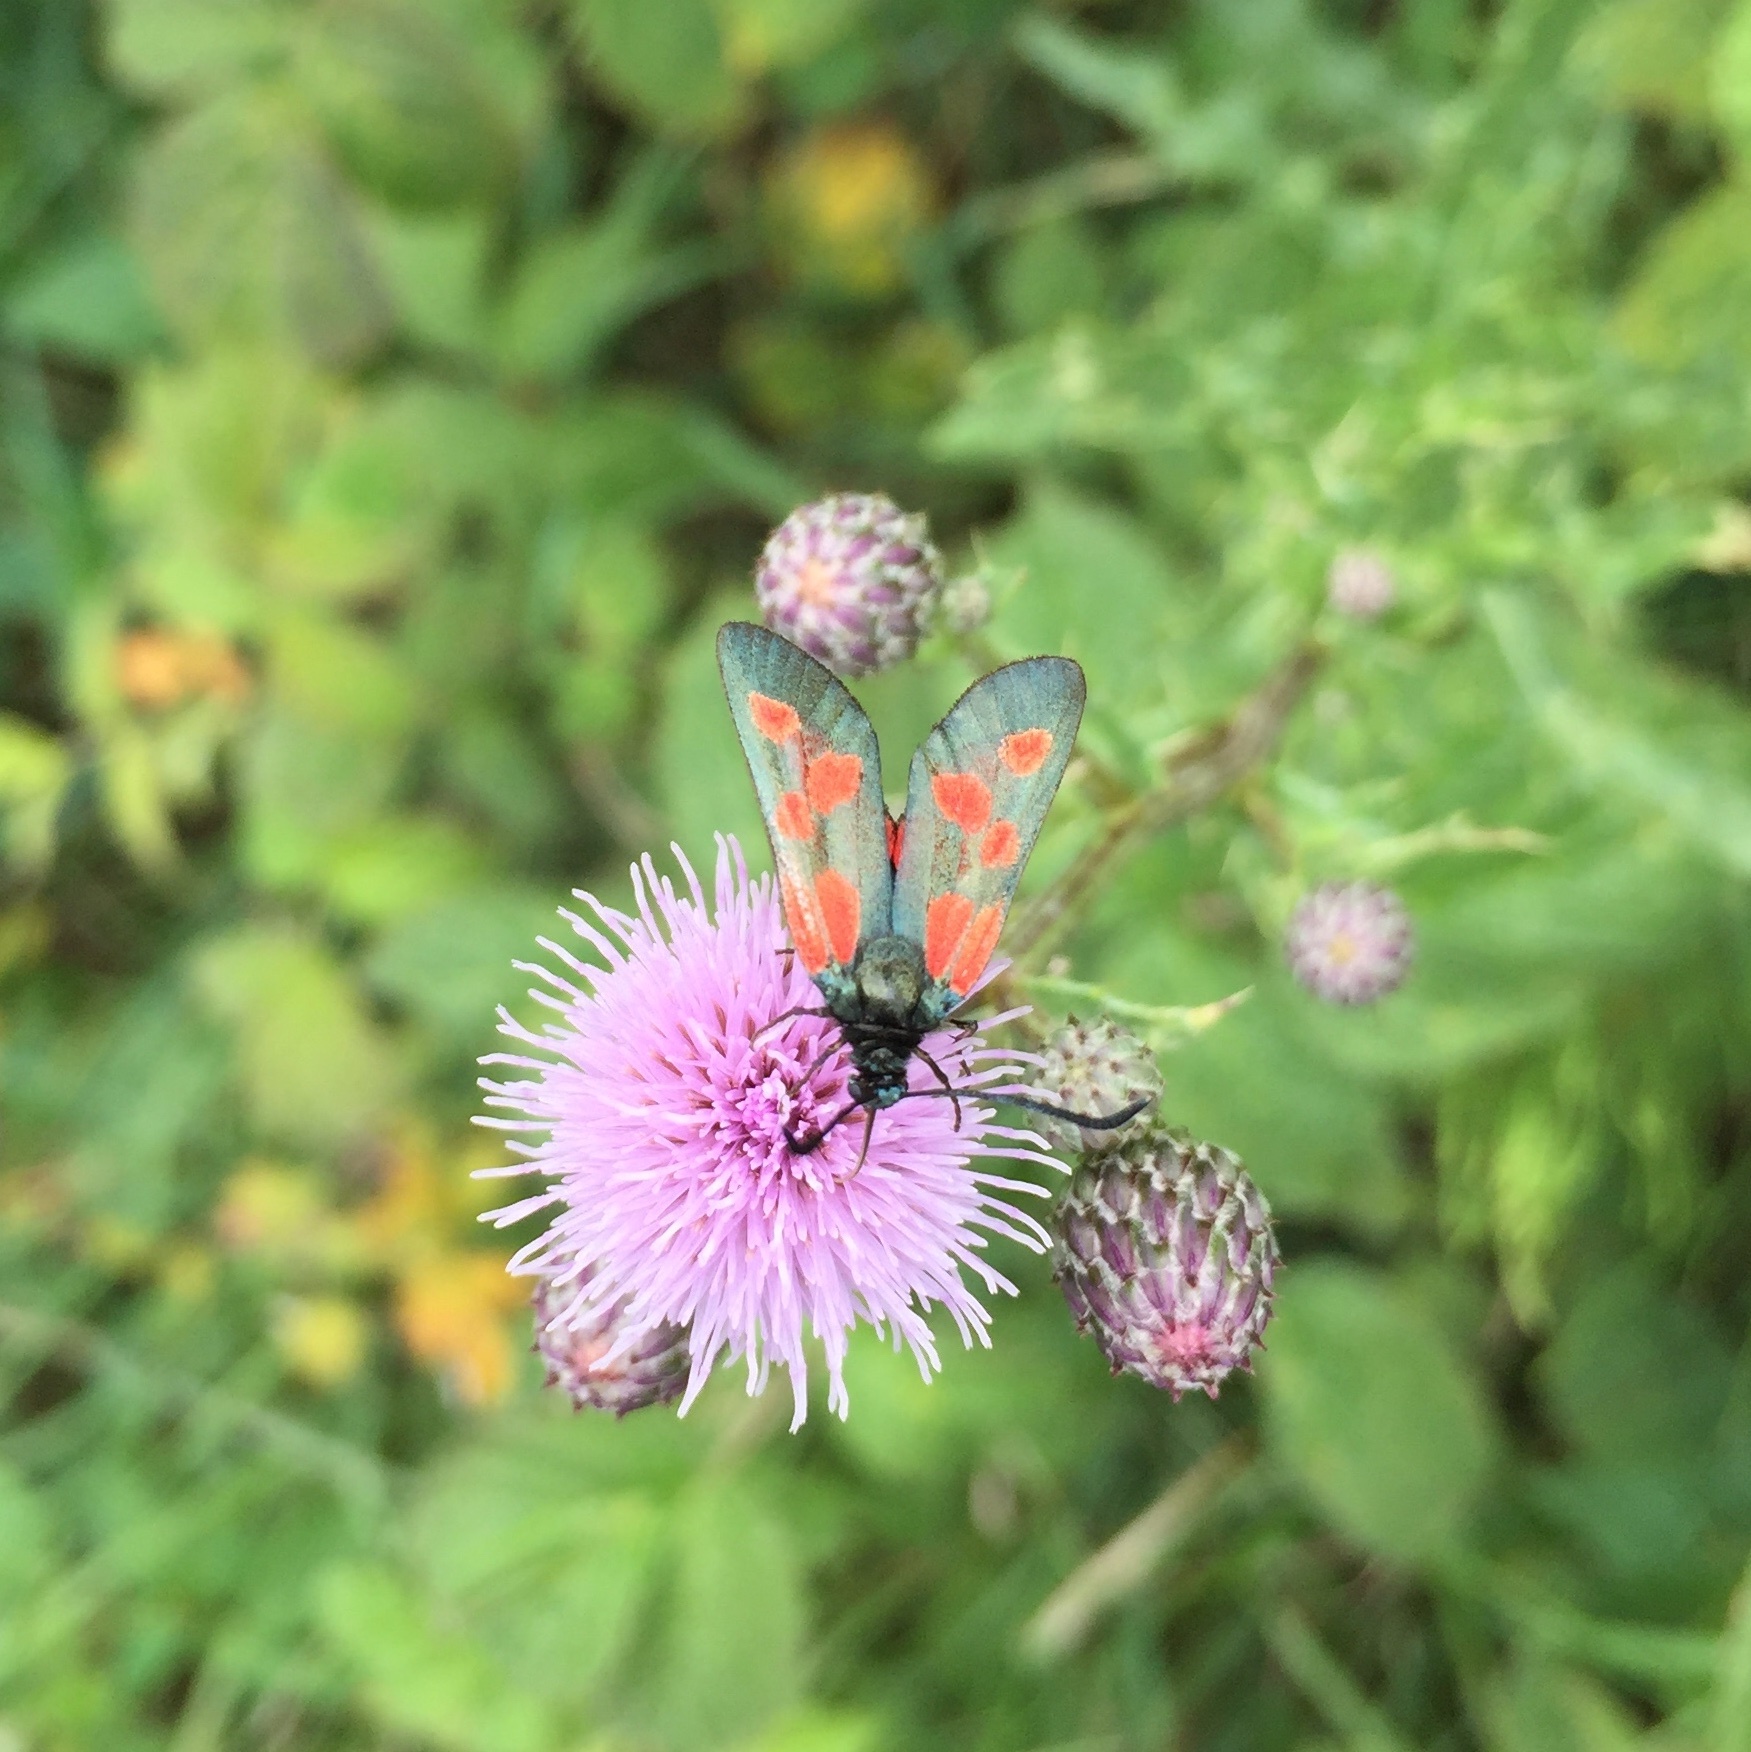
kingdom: Animalia
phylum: Arthropoda
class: Insecta
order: Lepidoptera
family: Zygaenidae
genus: Zygaena
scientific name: Zygaena viciae
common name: New forest burnet
